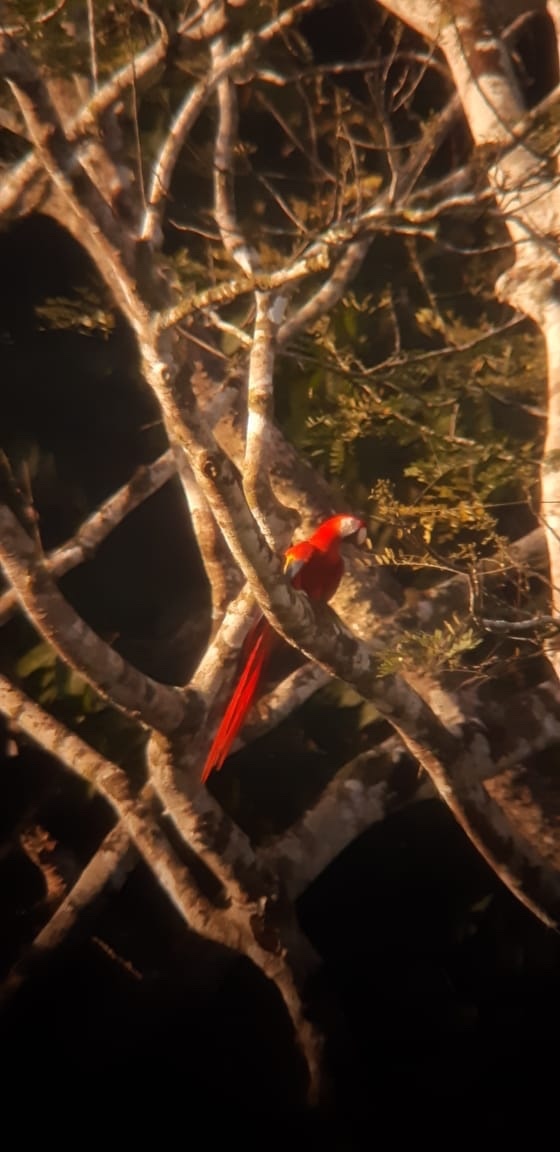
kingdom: Animalia
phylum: Chordata
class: Aves
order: Psittaciformes
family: Psittacidae
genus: Ara
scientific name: Ara macao
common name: Scarlet macaw
